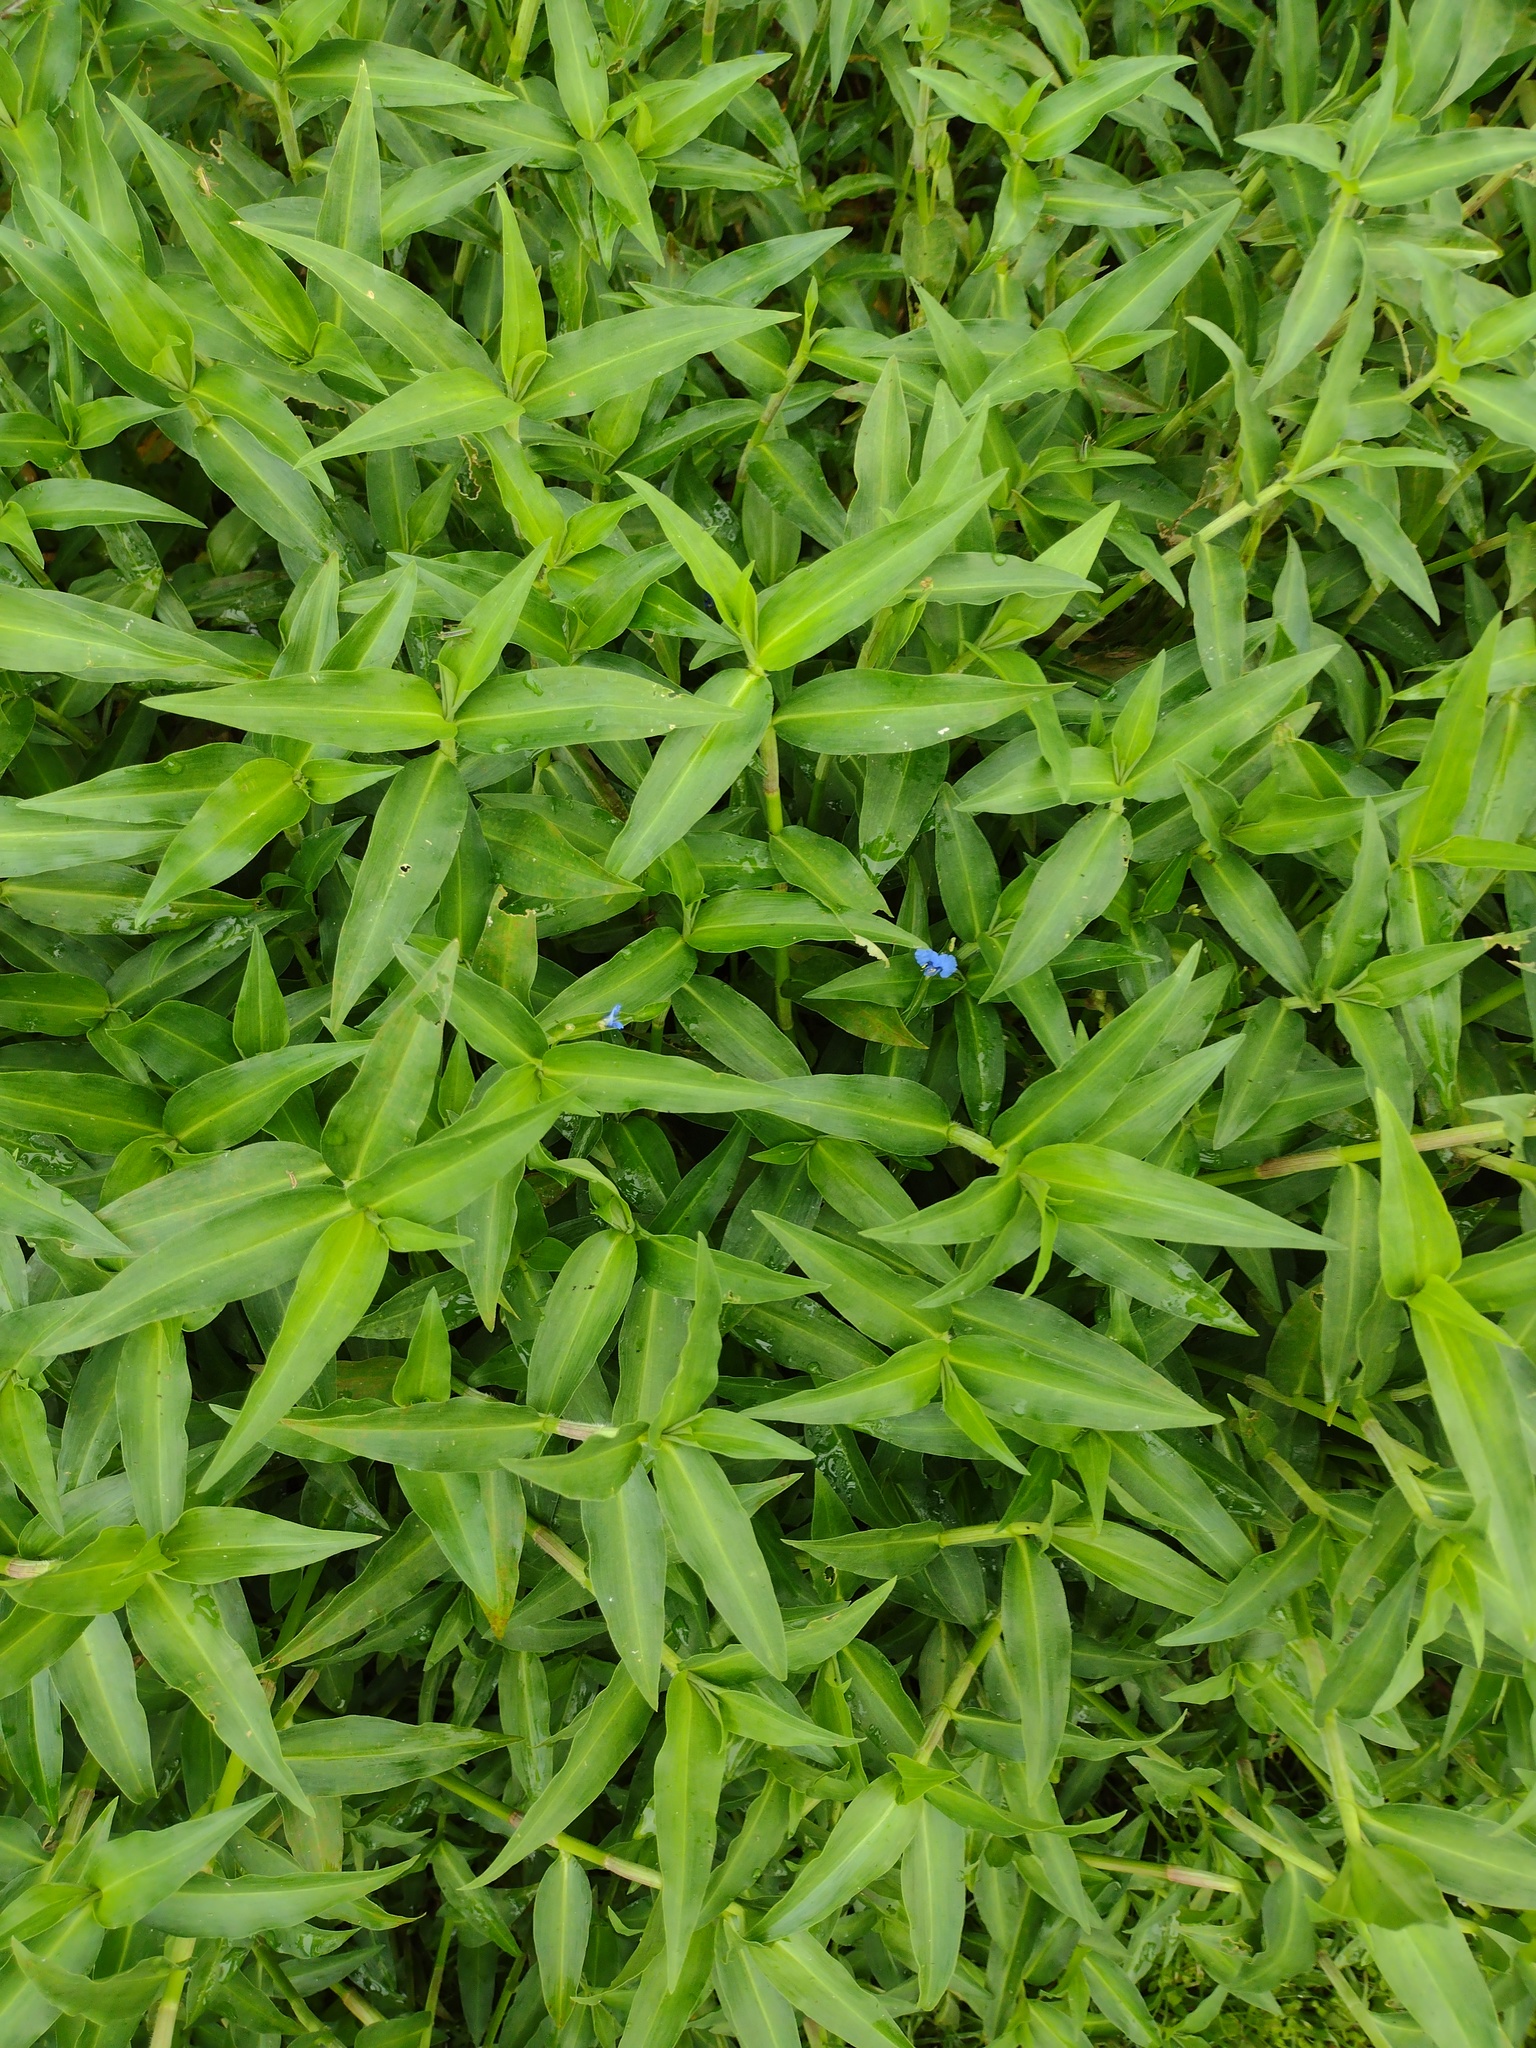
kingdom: Plantae
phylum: Tracheophyta
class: Liliopsida
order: Commelinales
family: Commelinaceae
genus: Commelina
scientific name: Commelina diffusa
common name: Climbing dayflower
